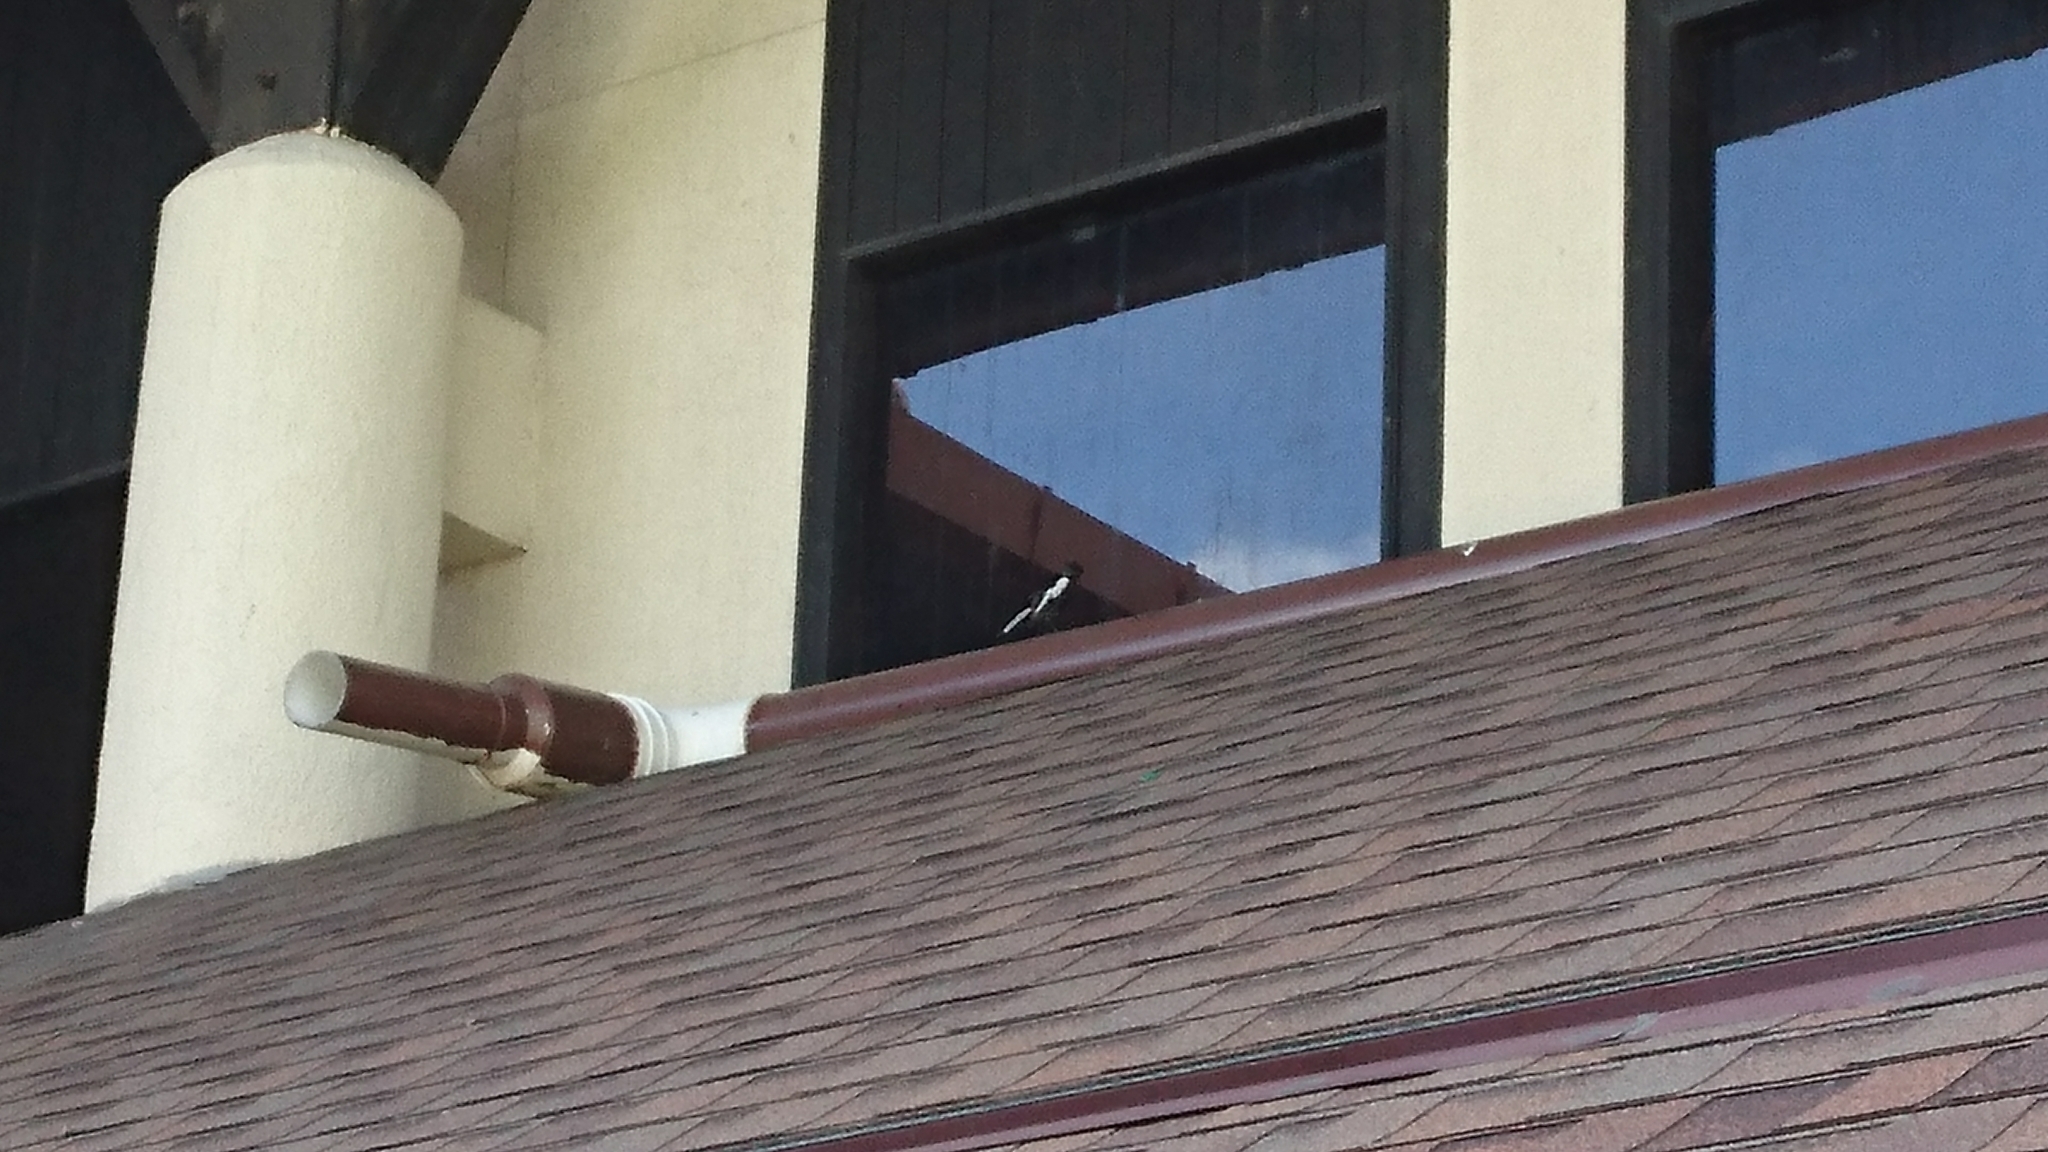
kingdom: Animalia
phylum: Chordata
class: Aves
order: Passeriformes
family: Muscicapidae
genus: Copsychus
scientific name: Copsychus saularis
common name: Oriental magpie-robin
